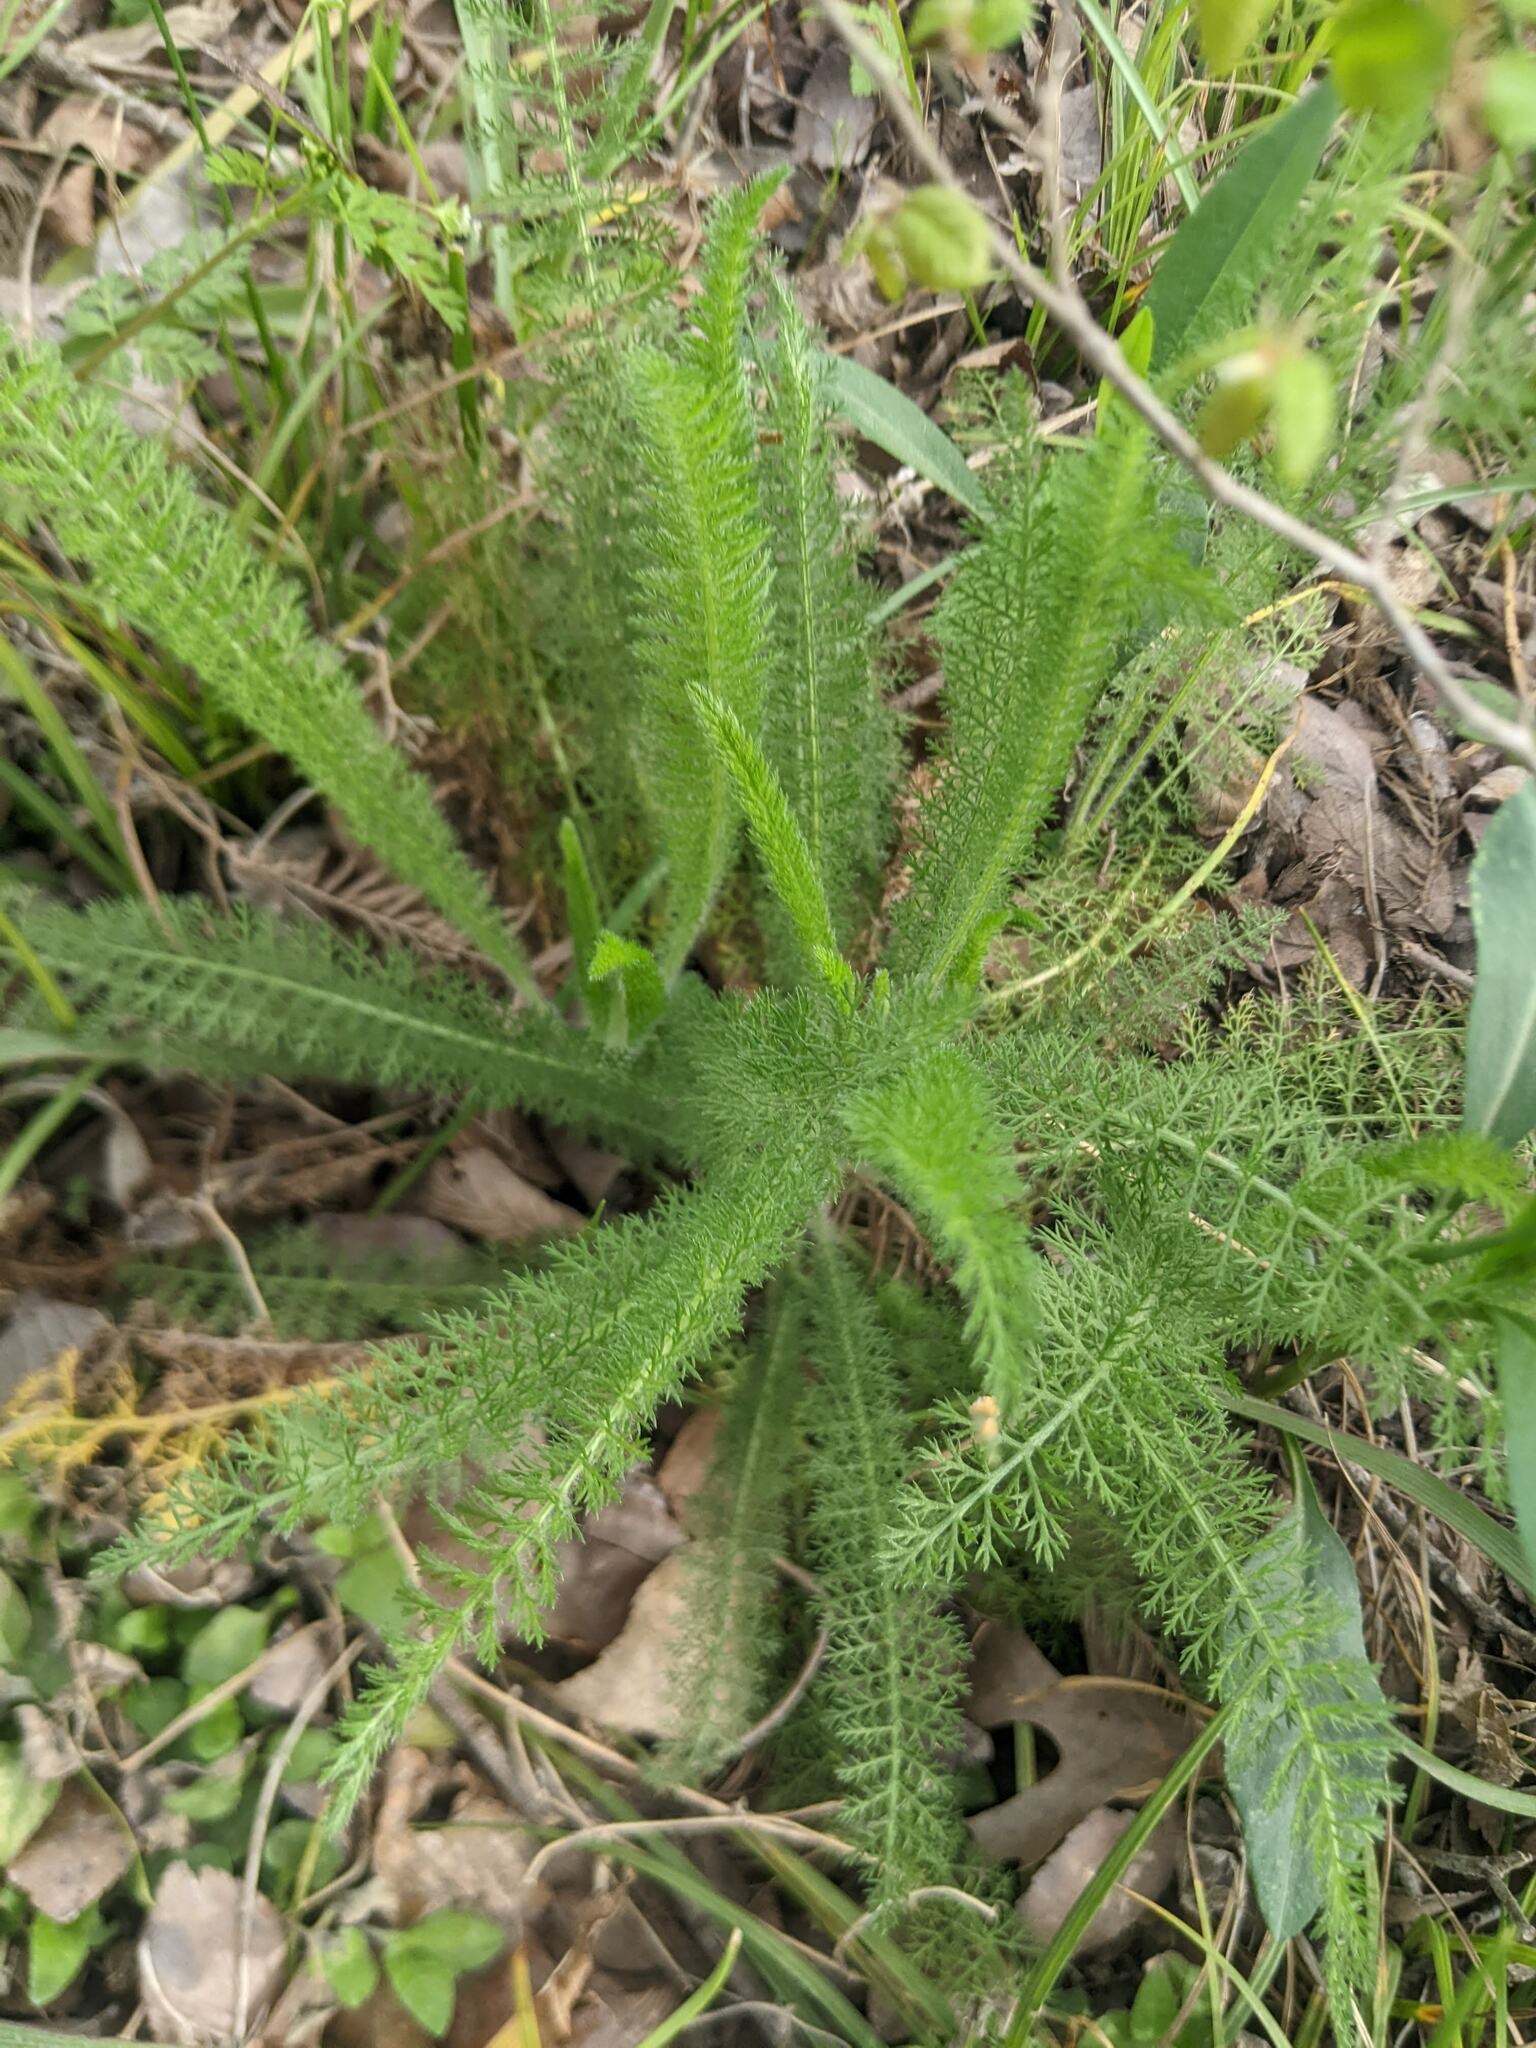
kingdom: Plantae
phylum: Tracheophyta
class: Magnoliopsida
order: Asterales
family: Asteraceae
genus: Achillea
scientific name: Achillea millefolium
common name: Yarrow
